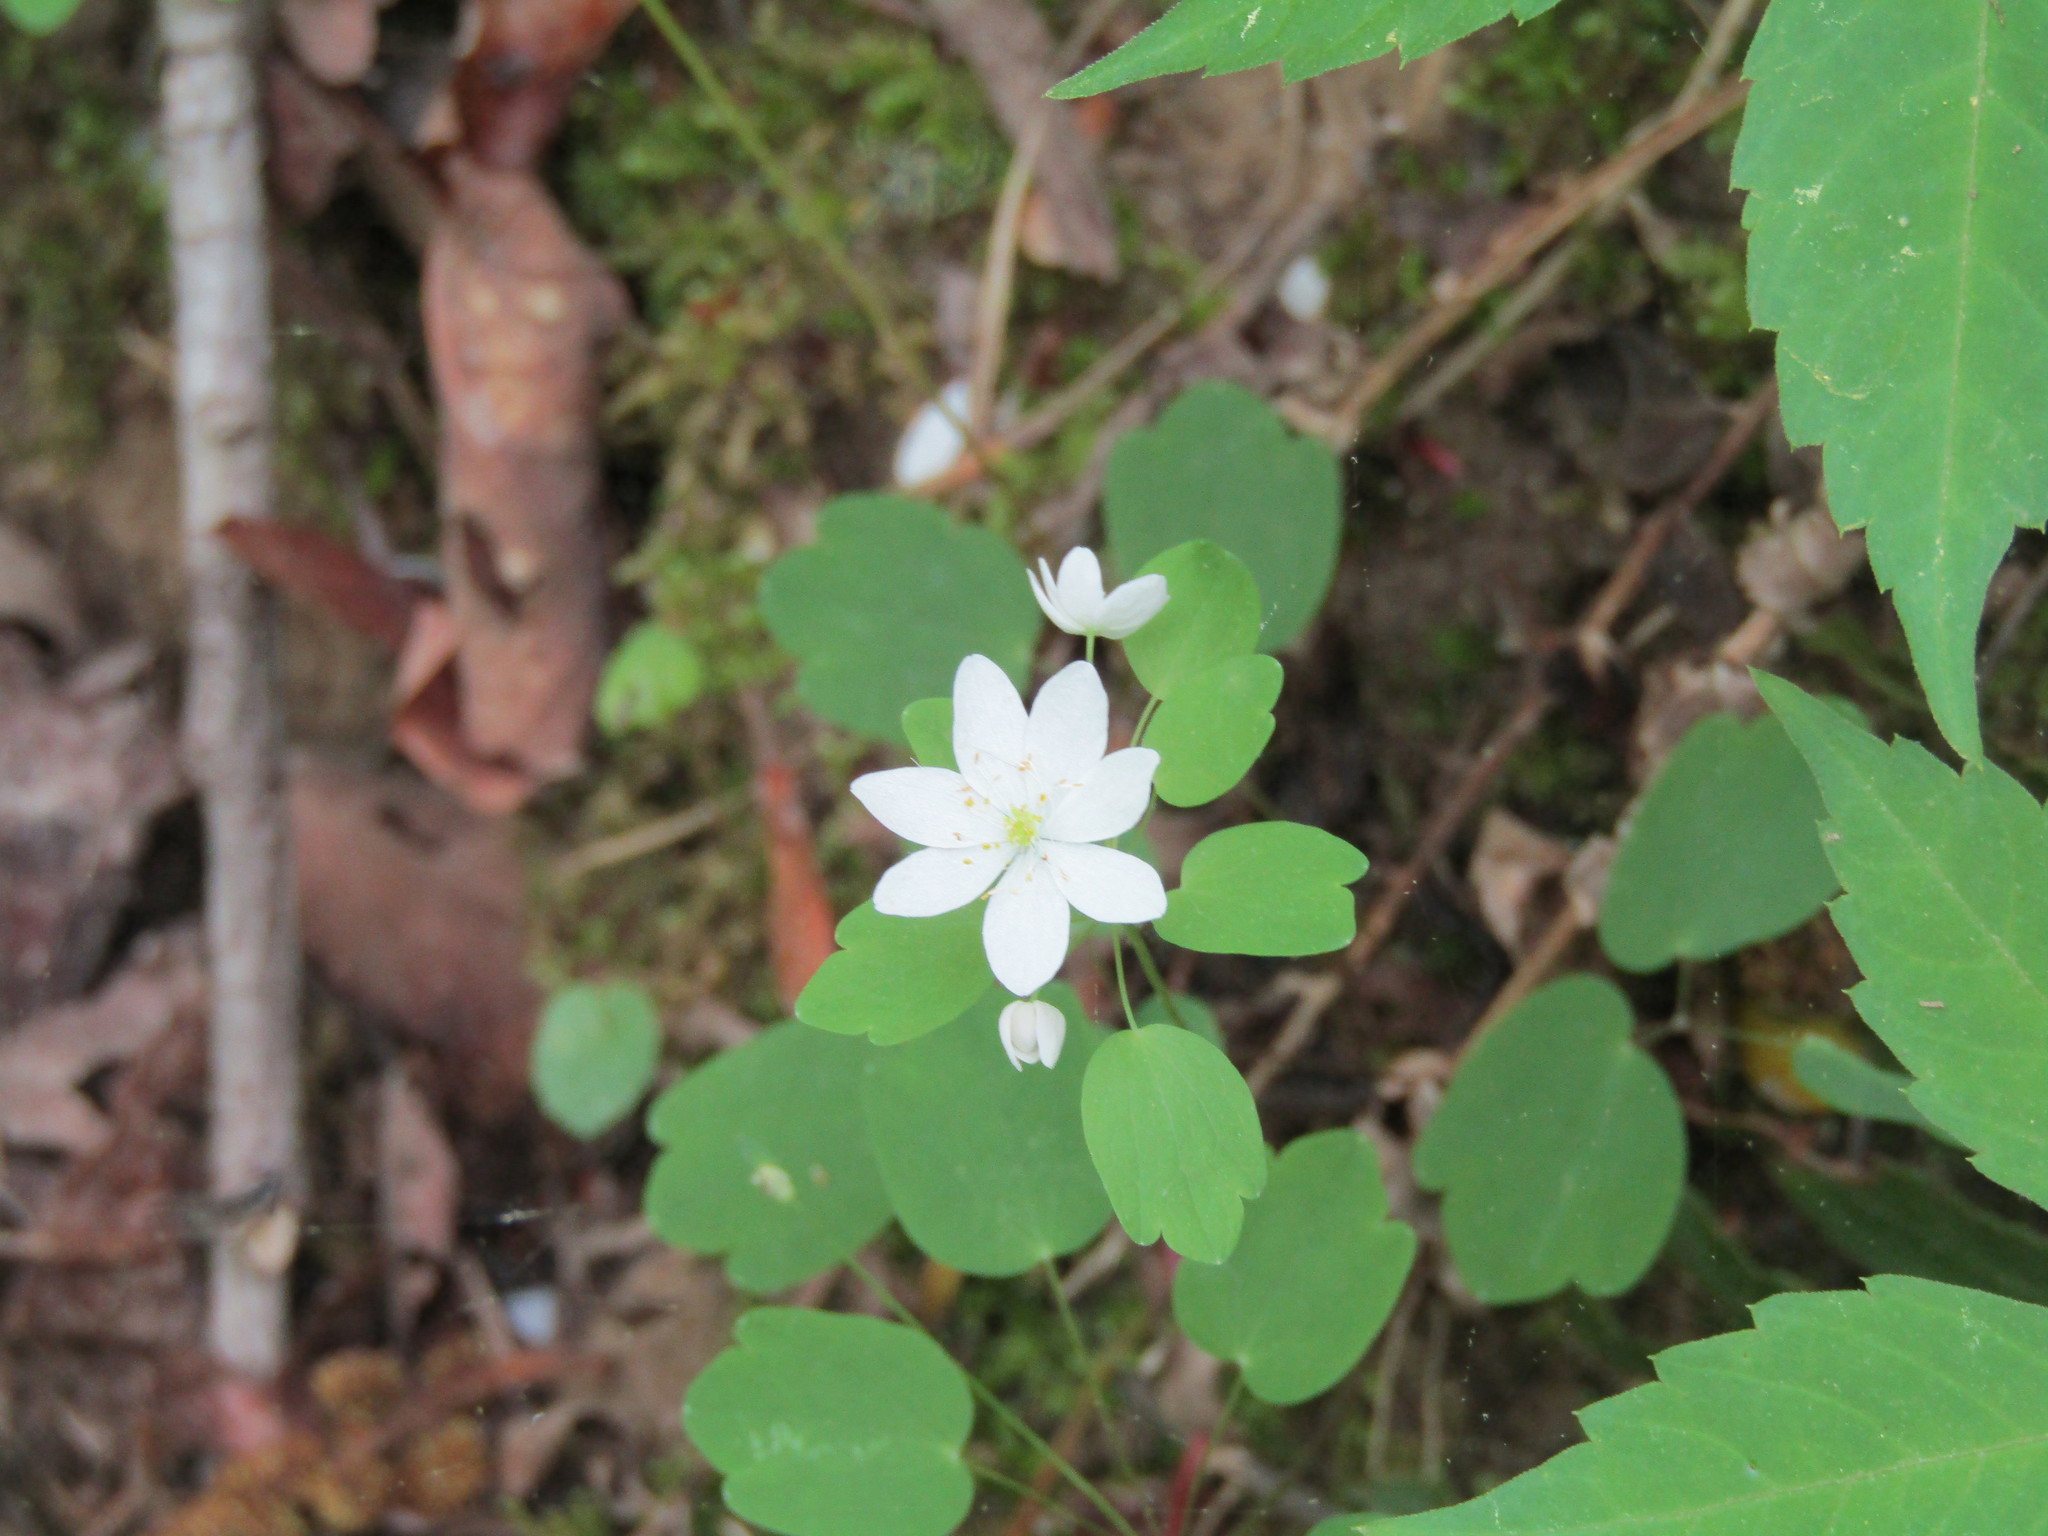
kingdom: Plantae
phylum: Tracheophyta
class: Magnoliopsida
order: Ranunculales
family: Ranunculaceae
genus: Thalictrum
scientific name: Thalictrum thalictroides
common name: Rue-anemone
